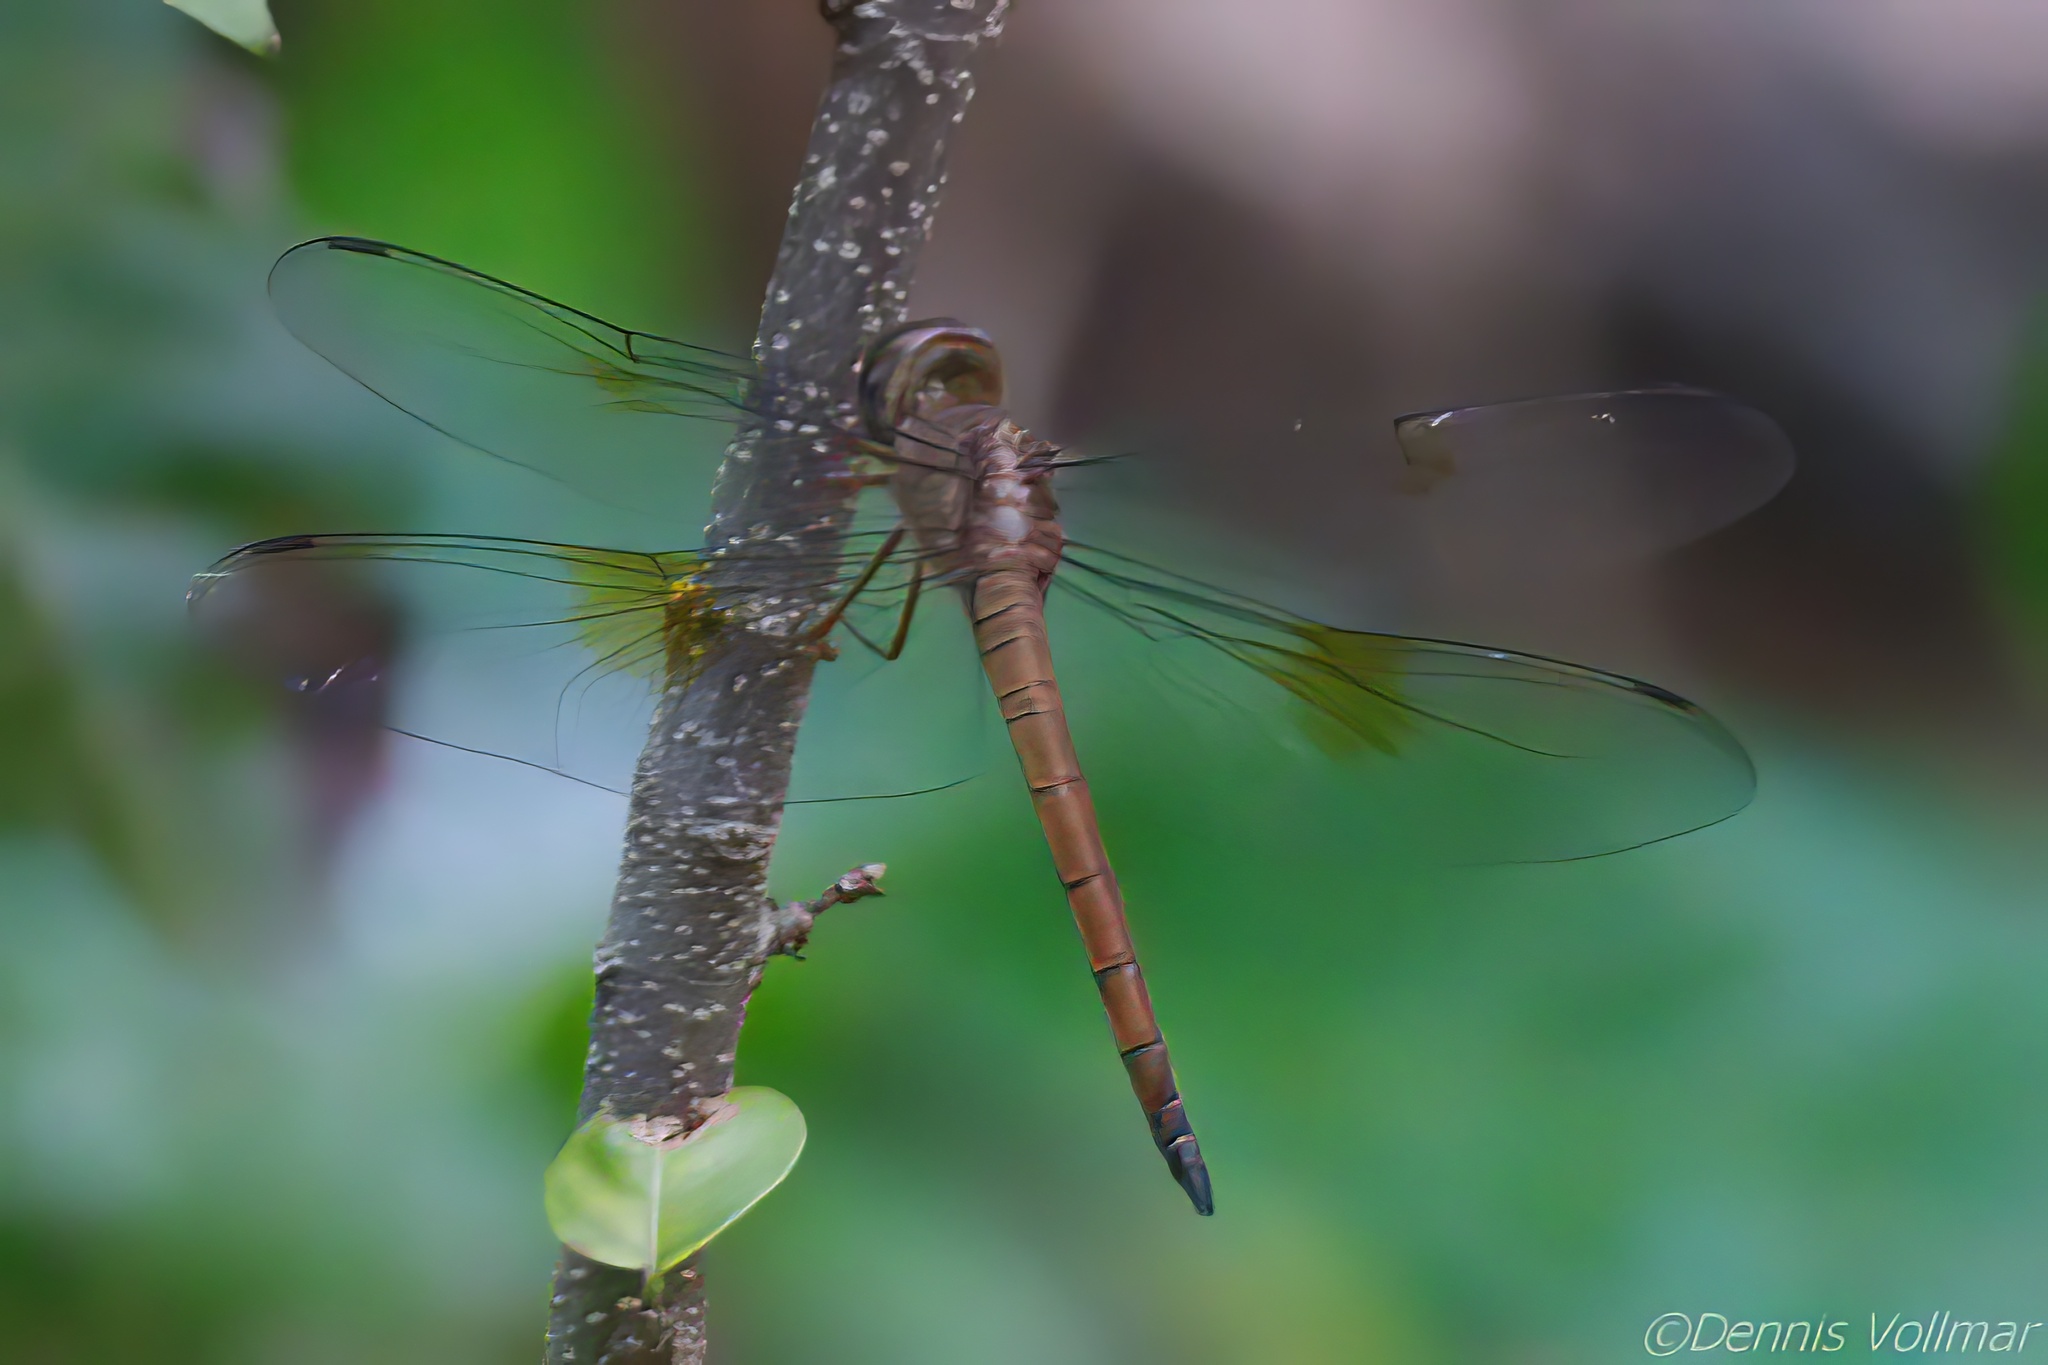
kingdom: Animalia
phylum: Arthropoda
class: Insecta
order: Odonata
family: Libellulidae
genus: Tholymis
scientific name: Tholymis citrina
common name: Evening skimmer
